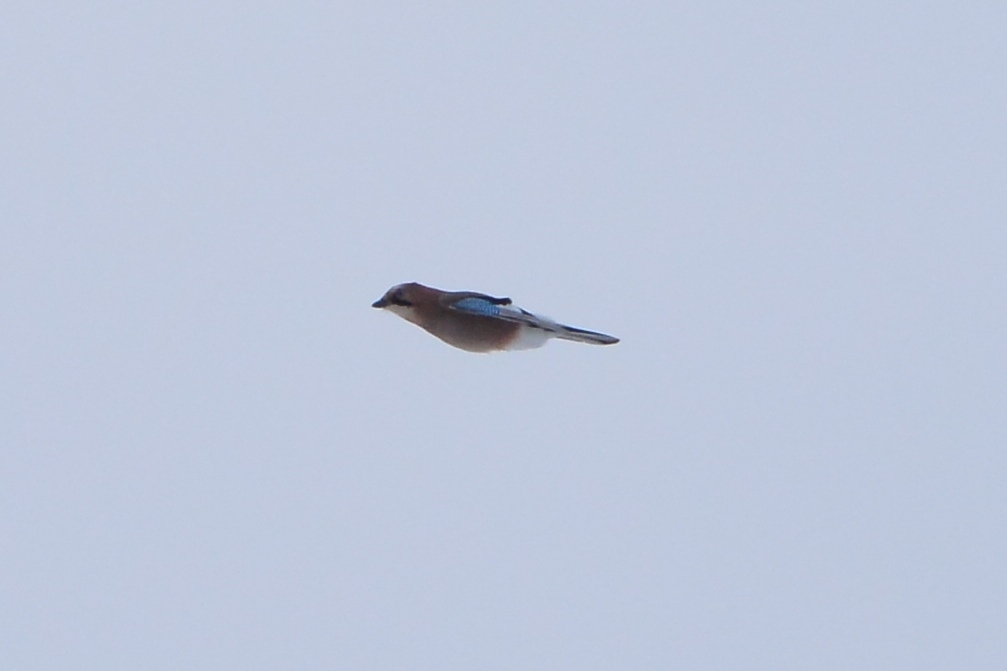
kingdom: Animalia
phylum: Chordata
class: Aves
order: Passeriformes
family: Corvidae
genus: Garrulus
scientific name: Garrulus glandarius
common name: Eurasian jay
